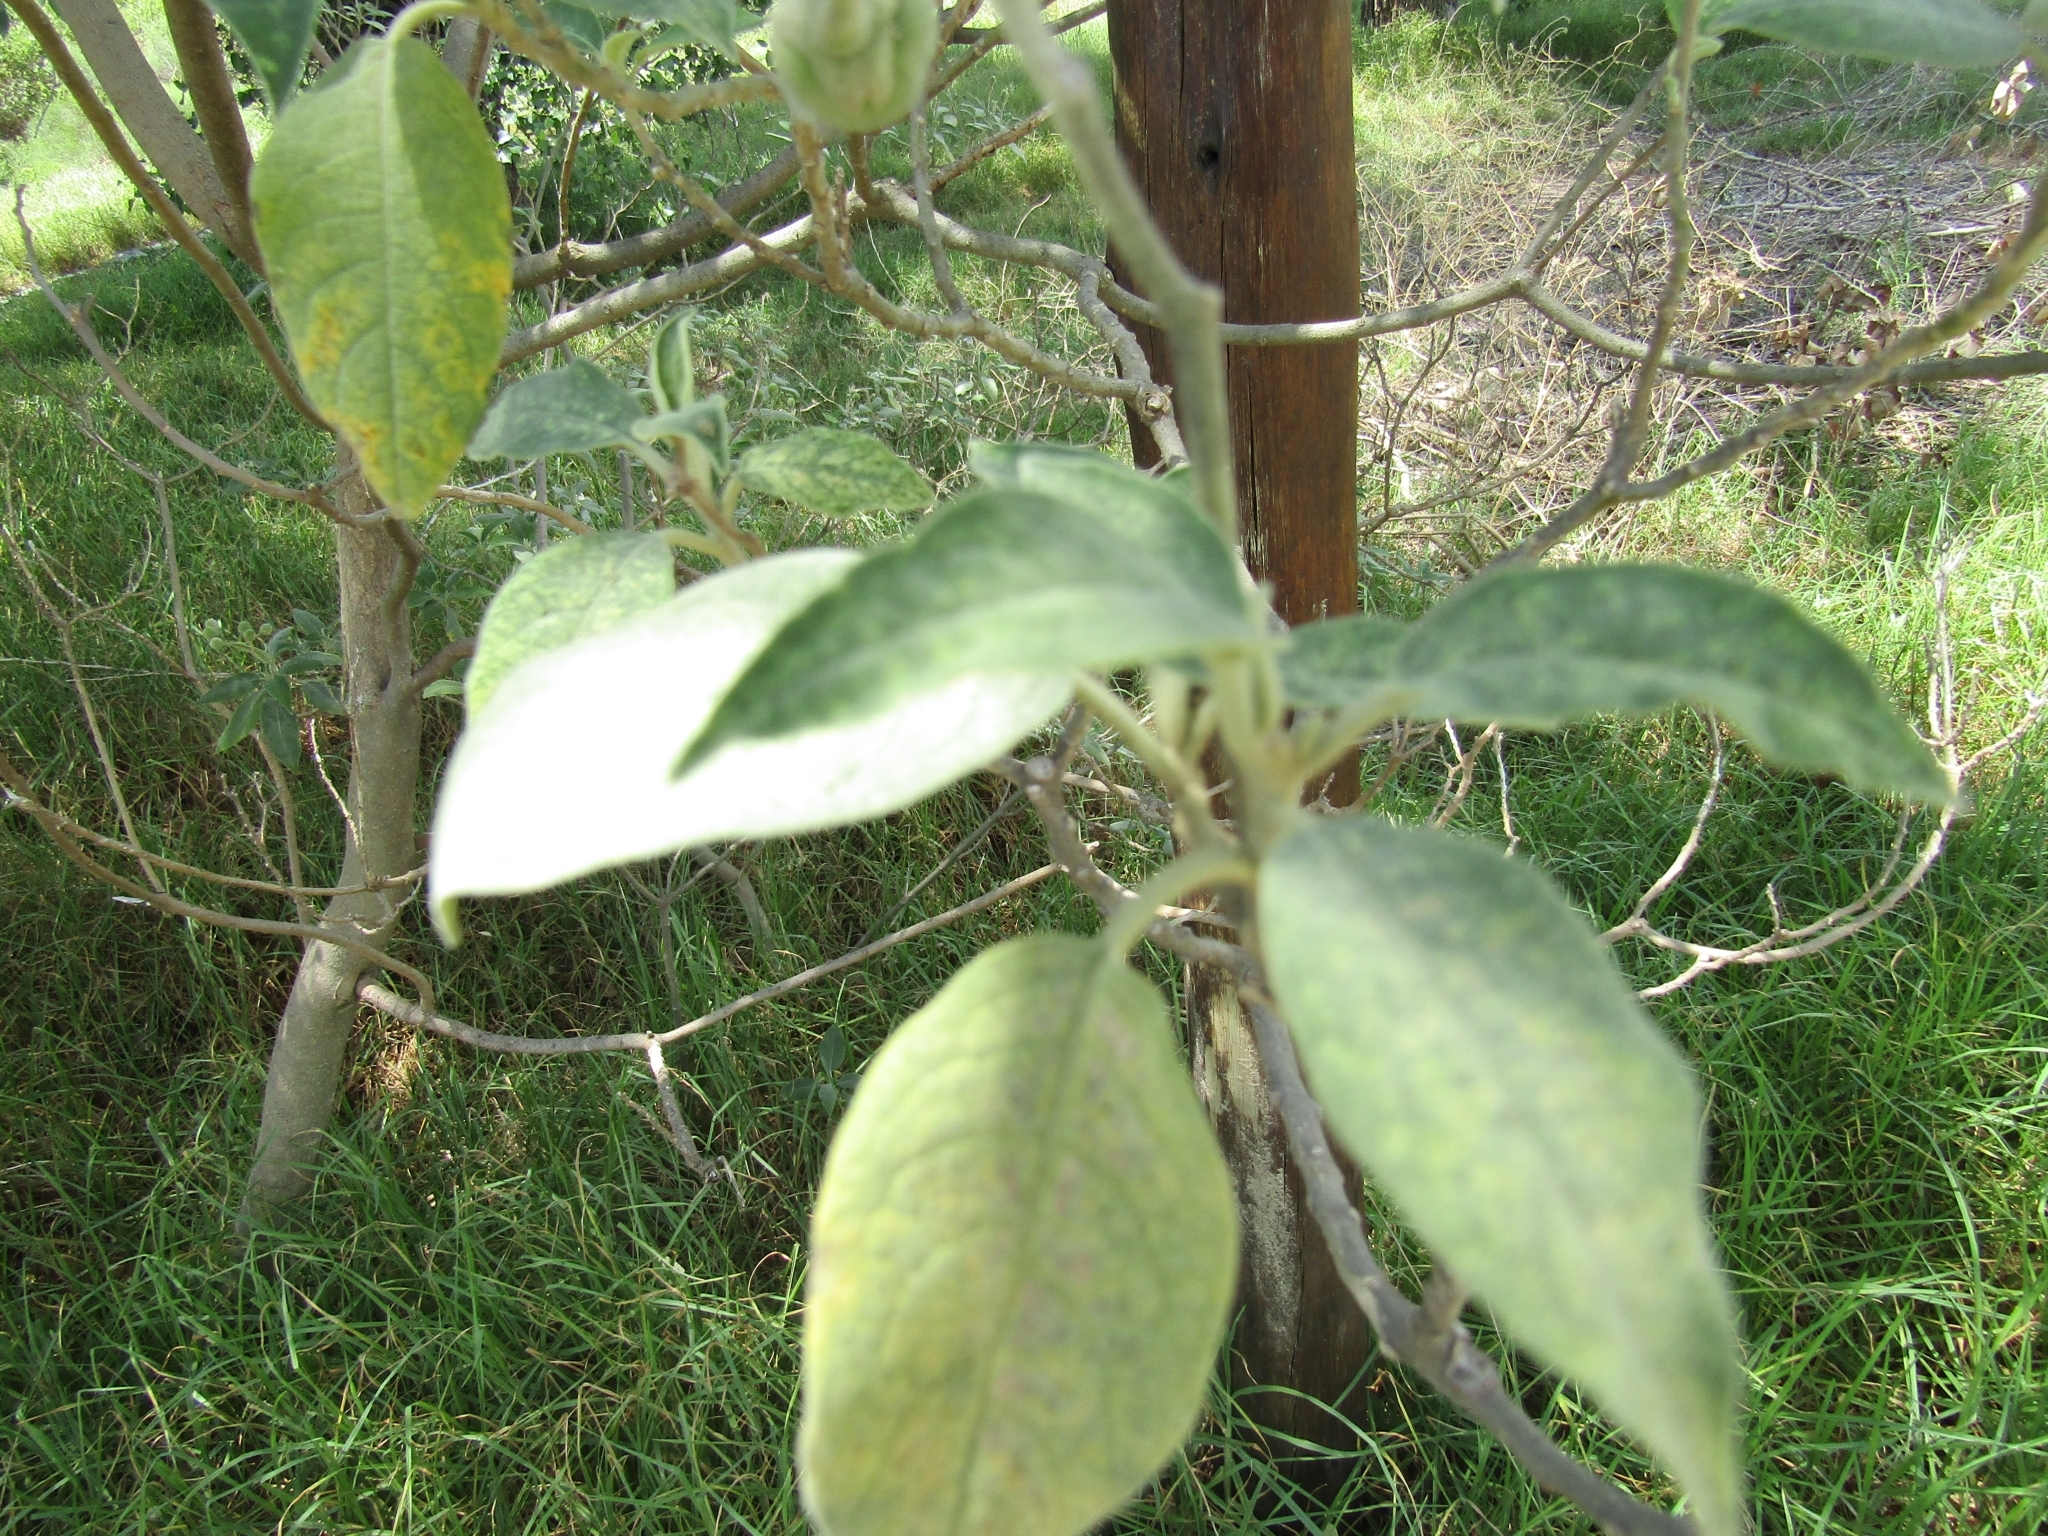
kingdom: Plantae
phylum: Tracheophyta
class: Magnoliopsida
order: Solanales
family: Solanaceae
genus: Solanum
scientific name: Solanum granulosoleprosum
